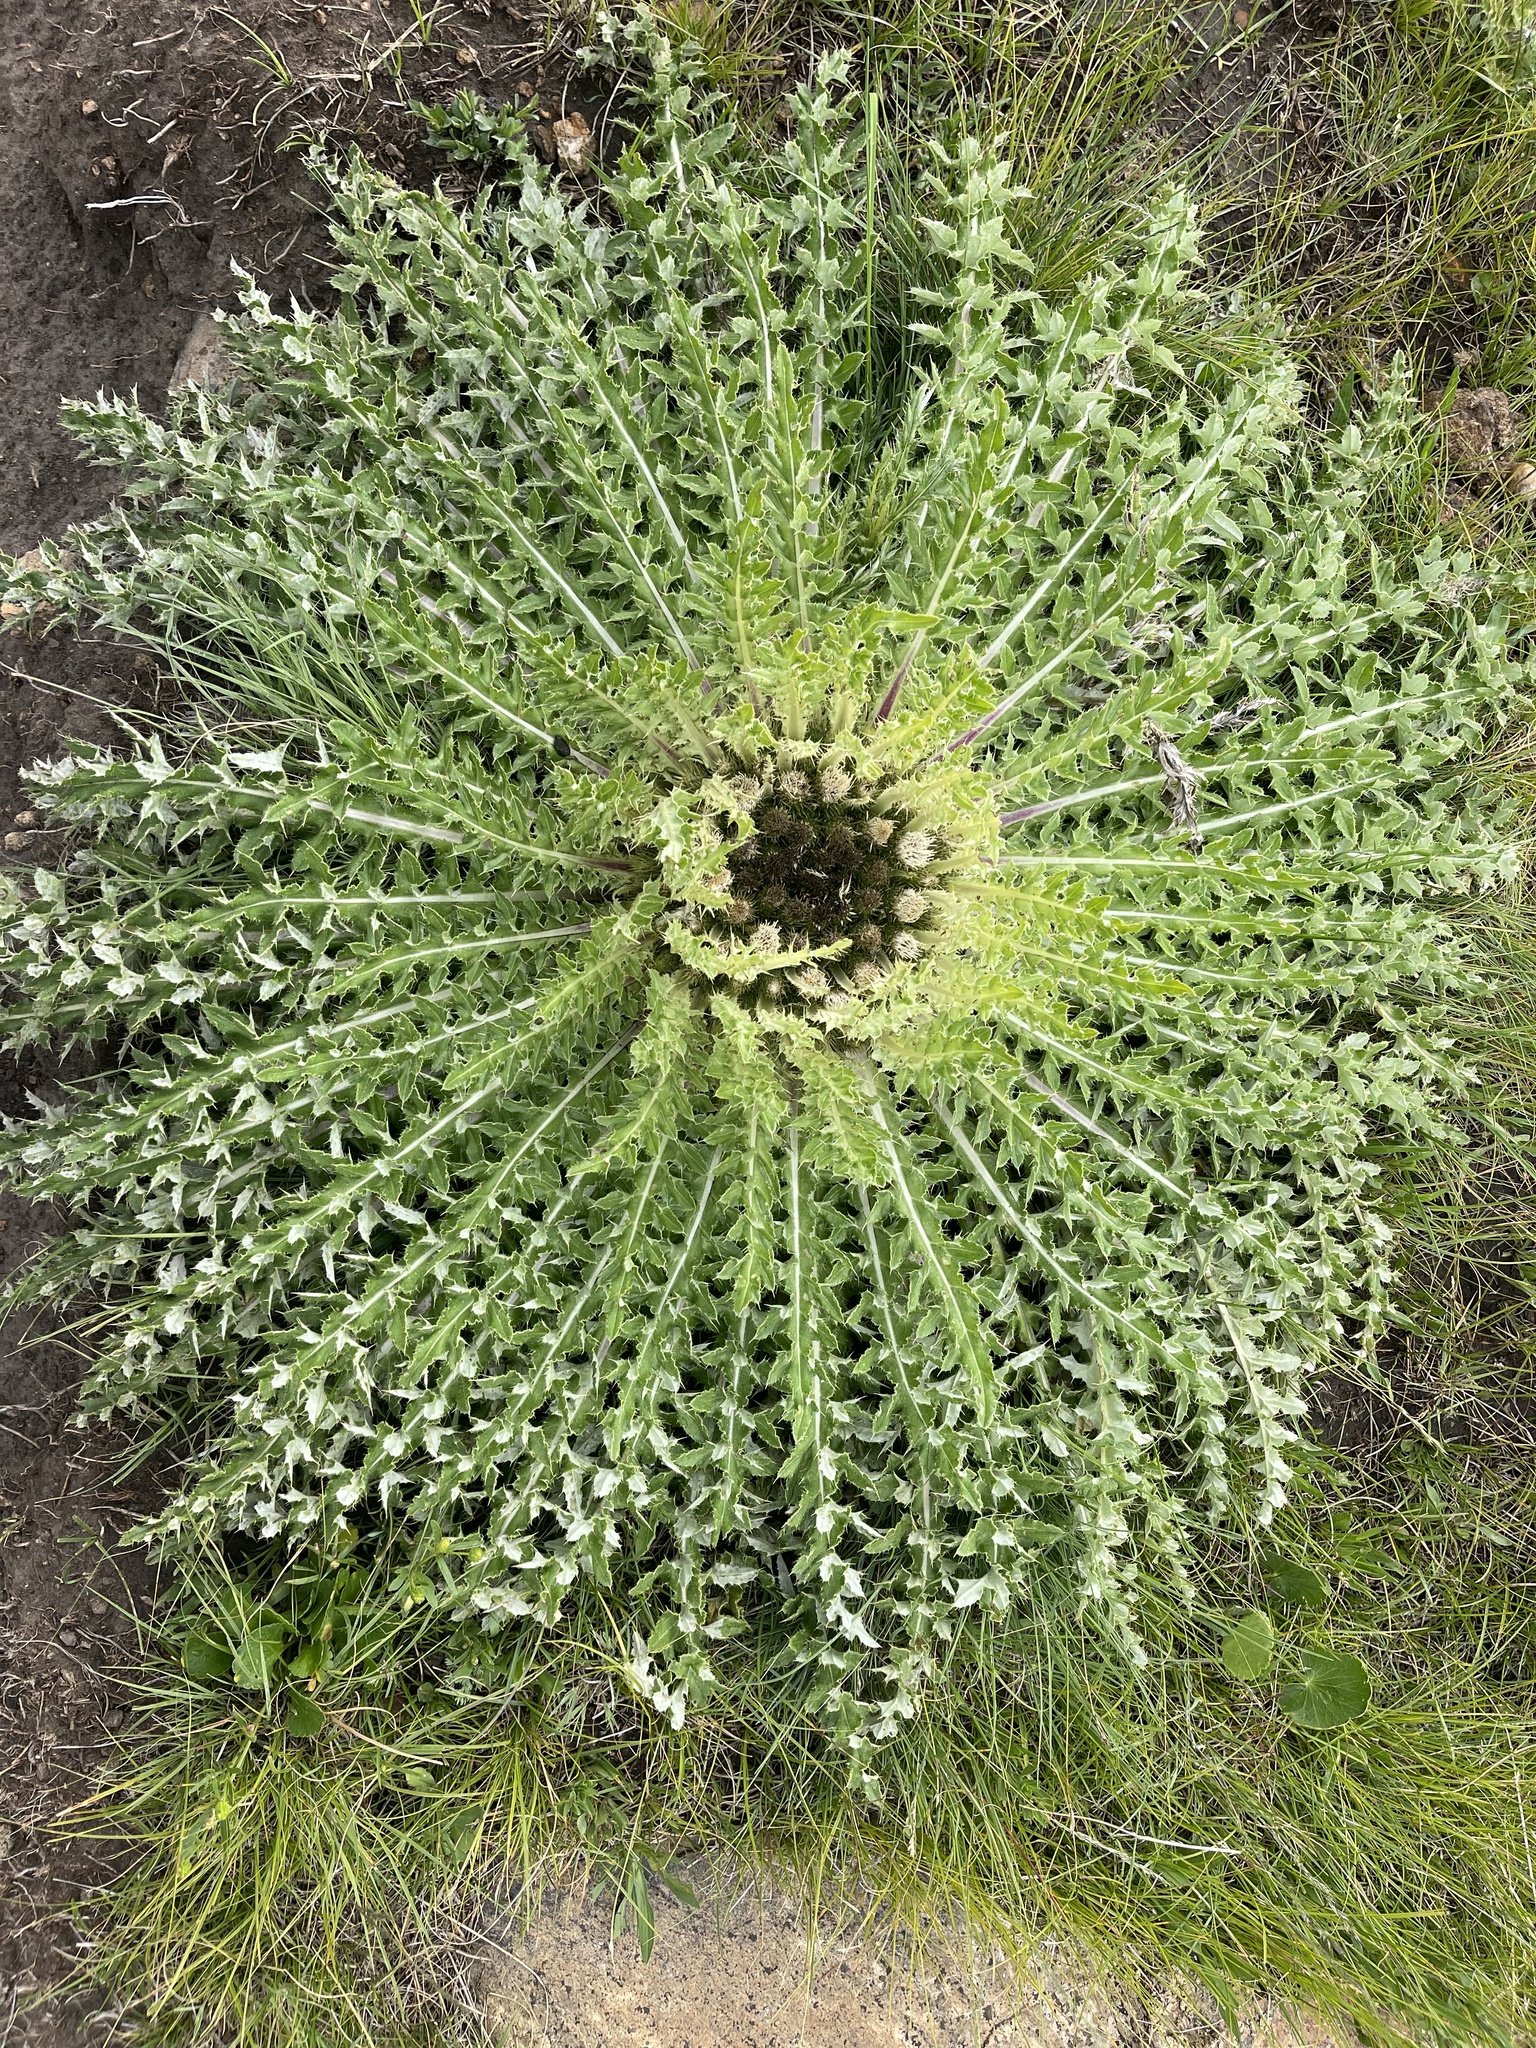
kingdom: Plantae
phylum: Tracheophyta
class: Magnoliopsida
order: Asterales
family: Asteraceae
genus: Cirsium
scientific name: Cirsium tioganum
